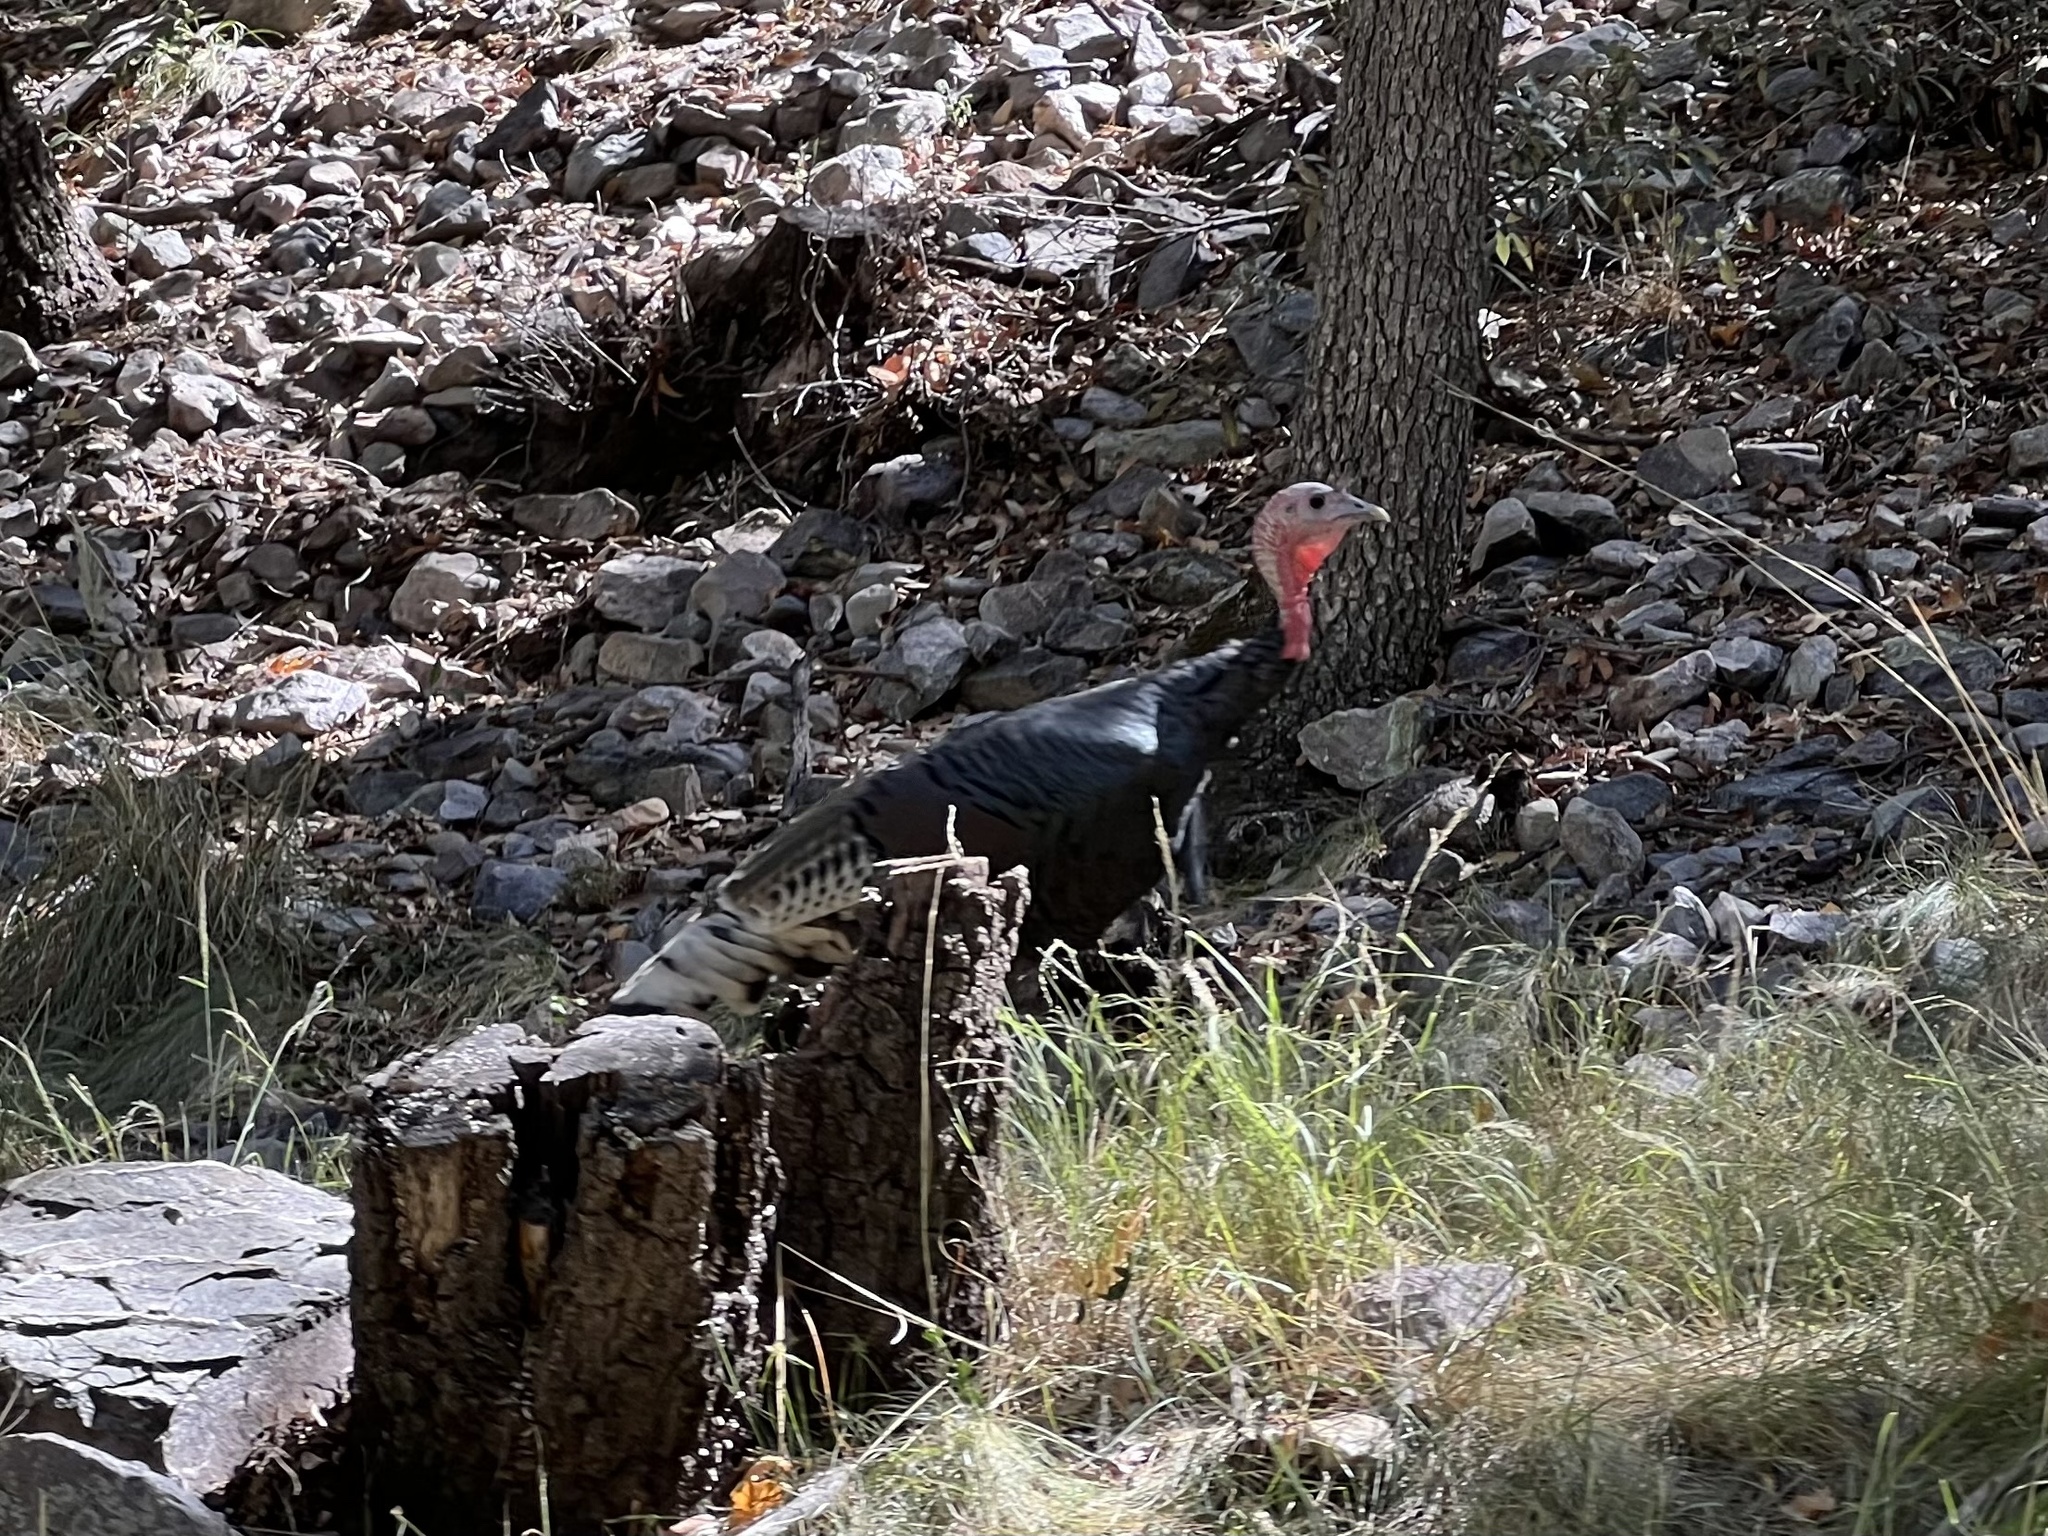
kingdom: Animalia
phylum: Chordata
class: Aves
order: Galliformes
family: Phasianidae
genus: Meleagris
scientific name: Meleagris gallopavo
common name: Wild turkey
